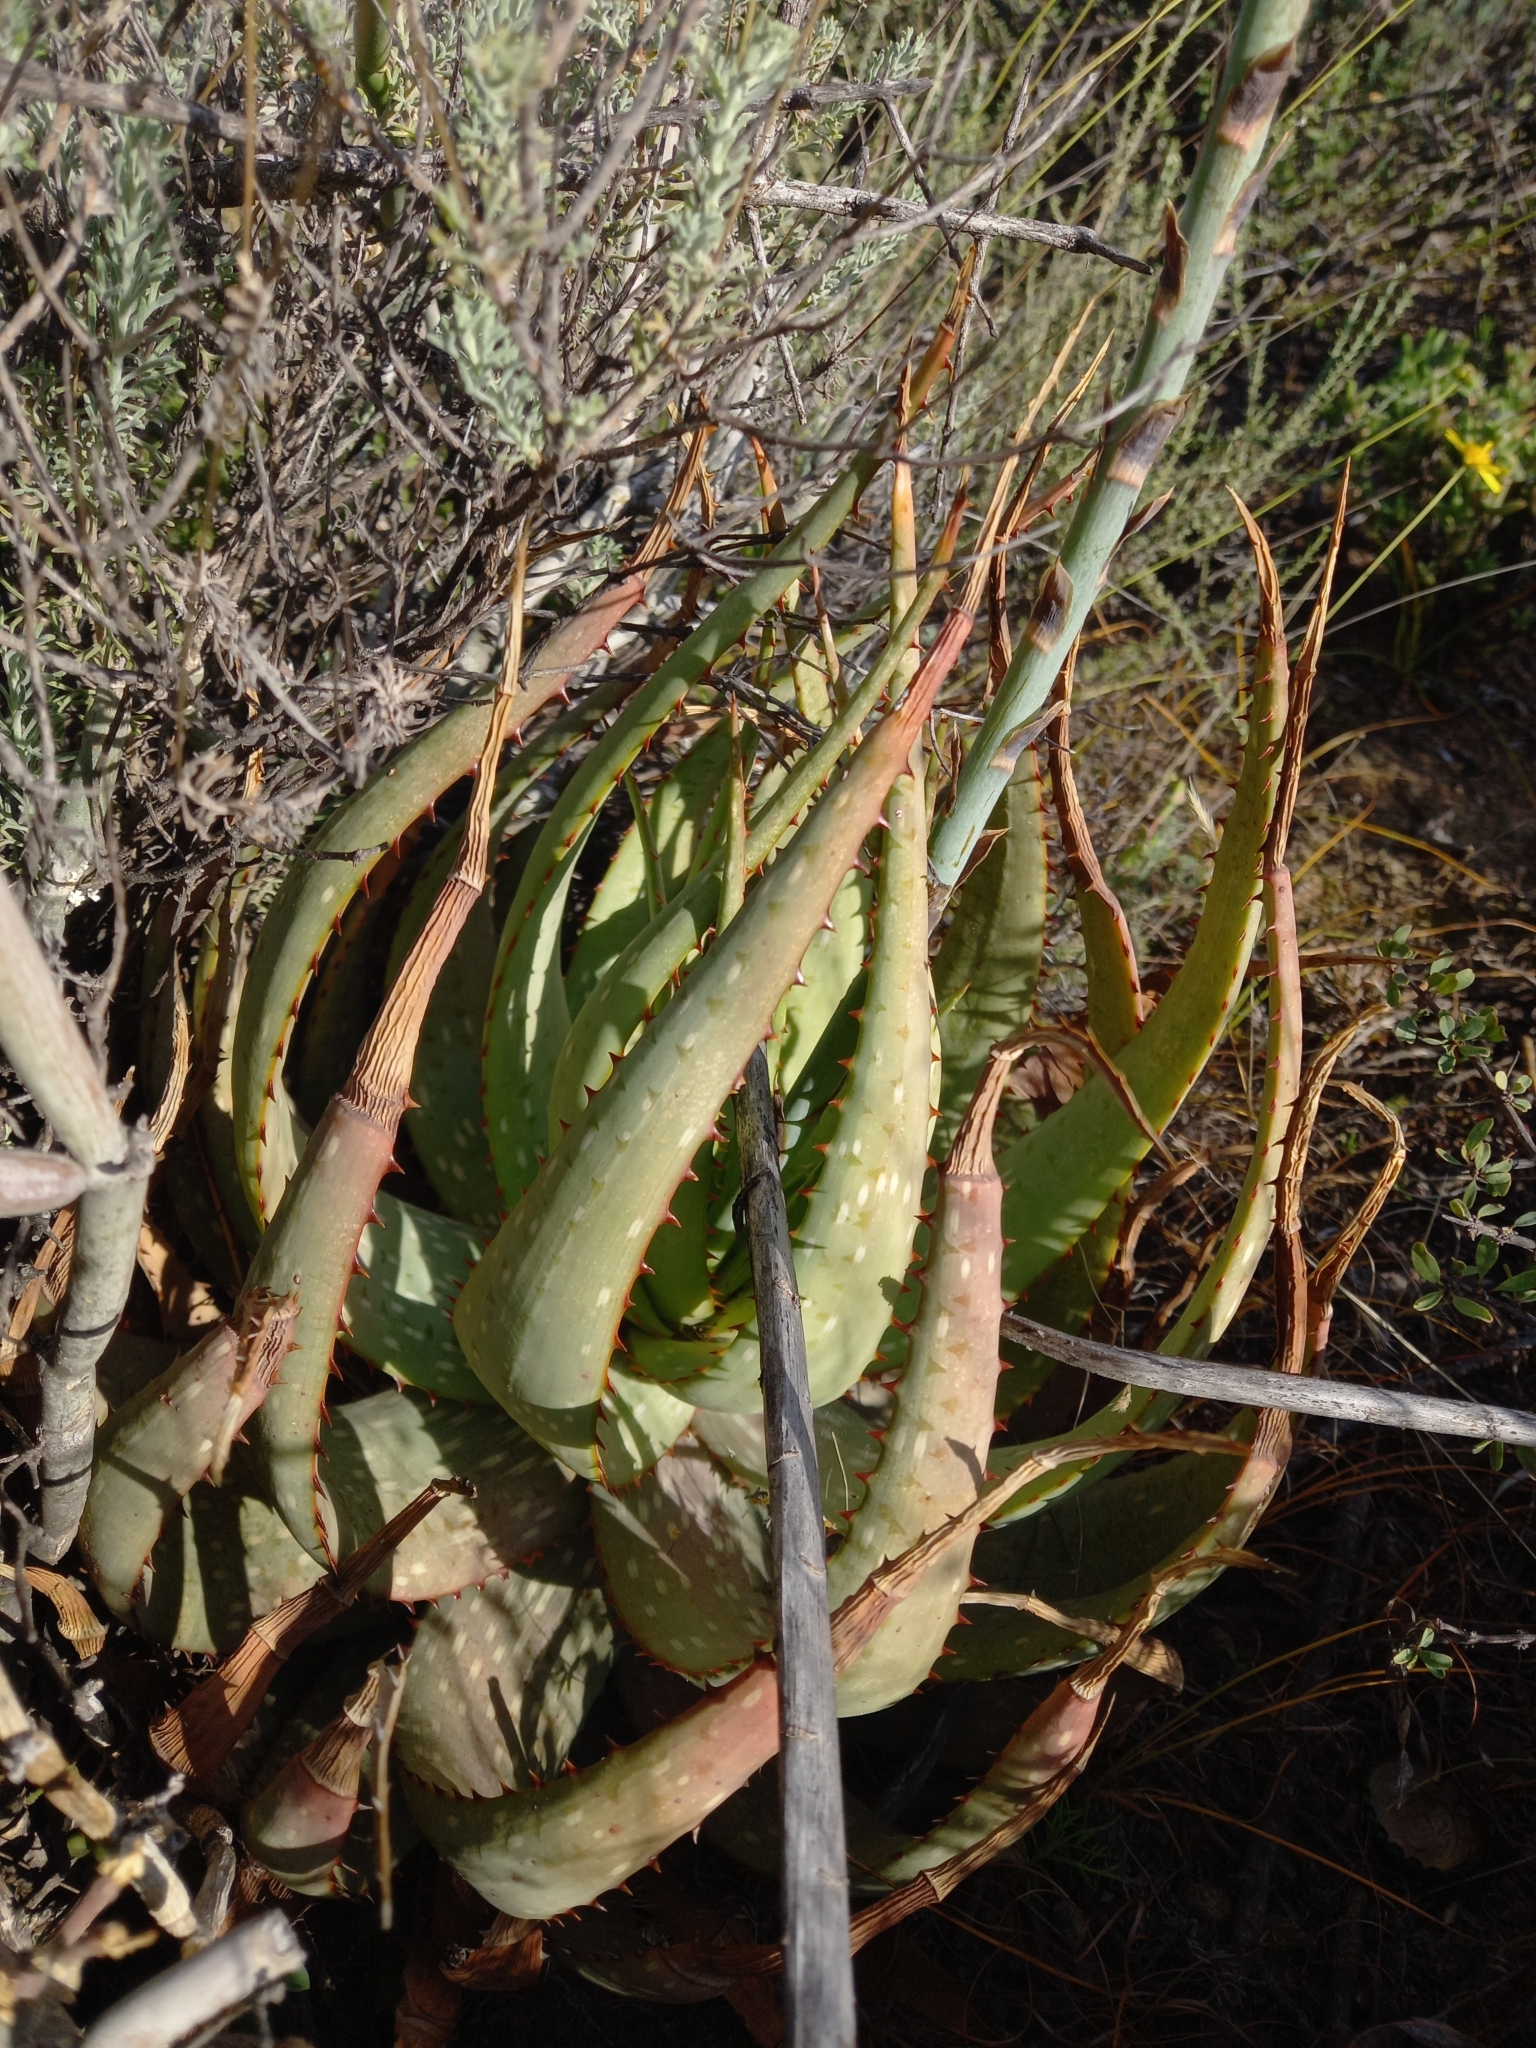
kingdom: Plantae
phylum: Tracheophyta
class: Liliopsida
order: Asparagales
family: Asphodelaceae
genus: Aloe
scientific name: Aloe microstigma
